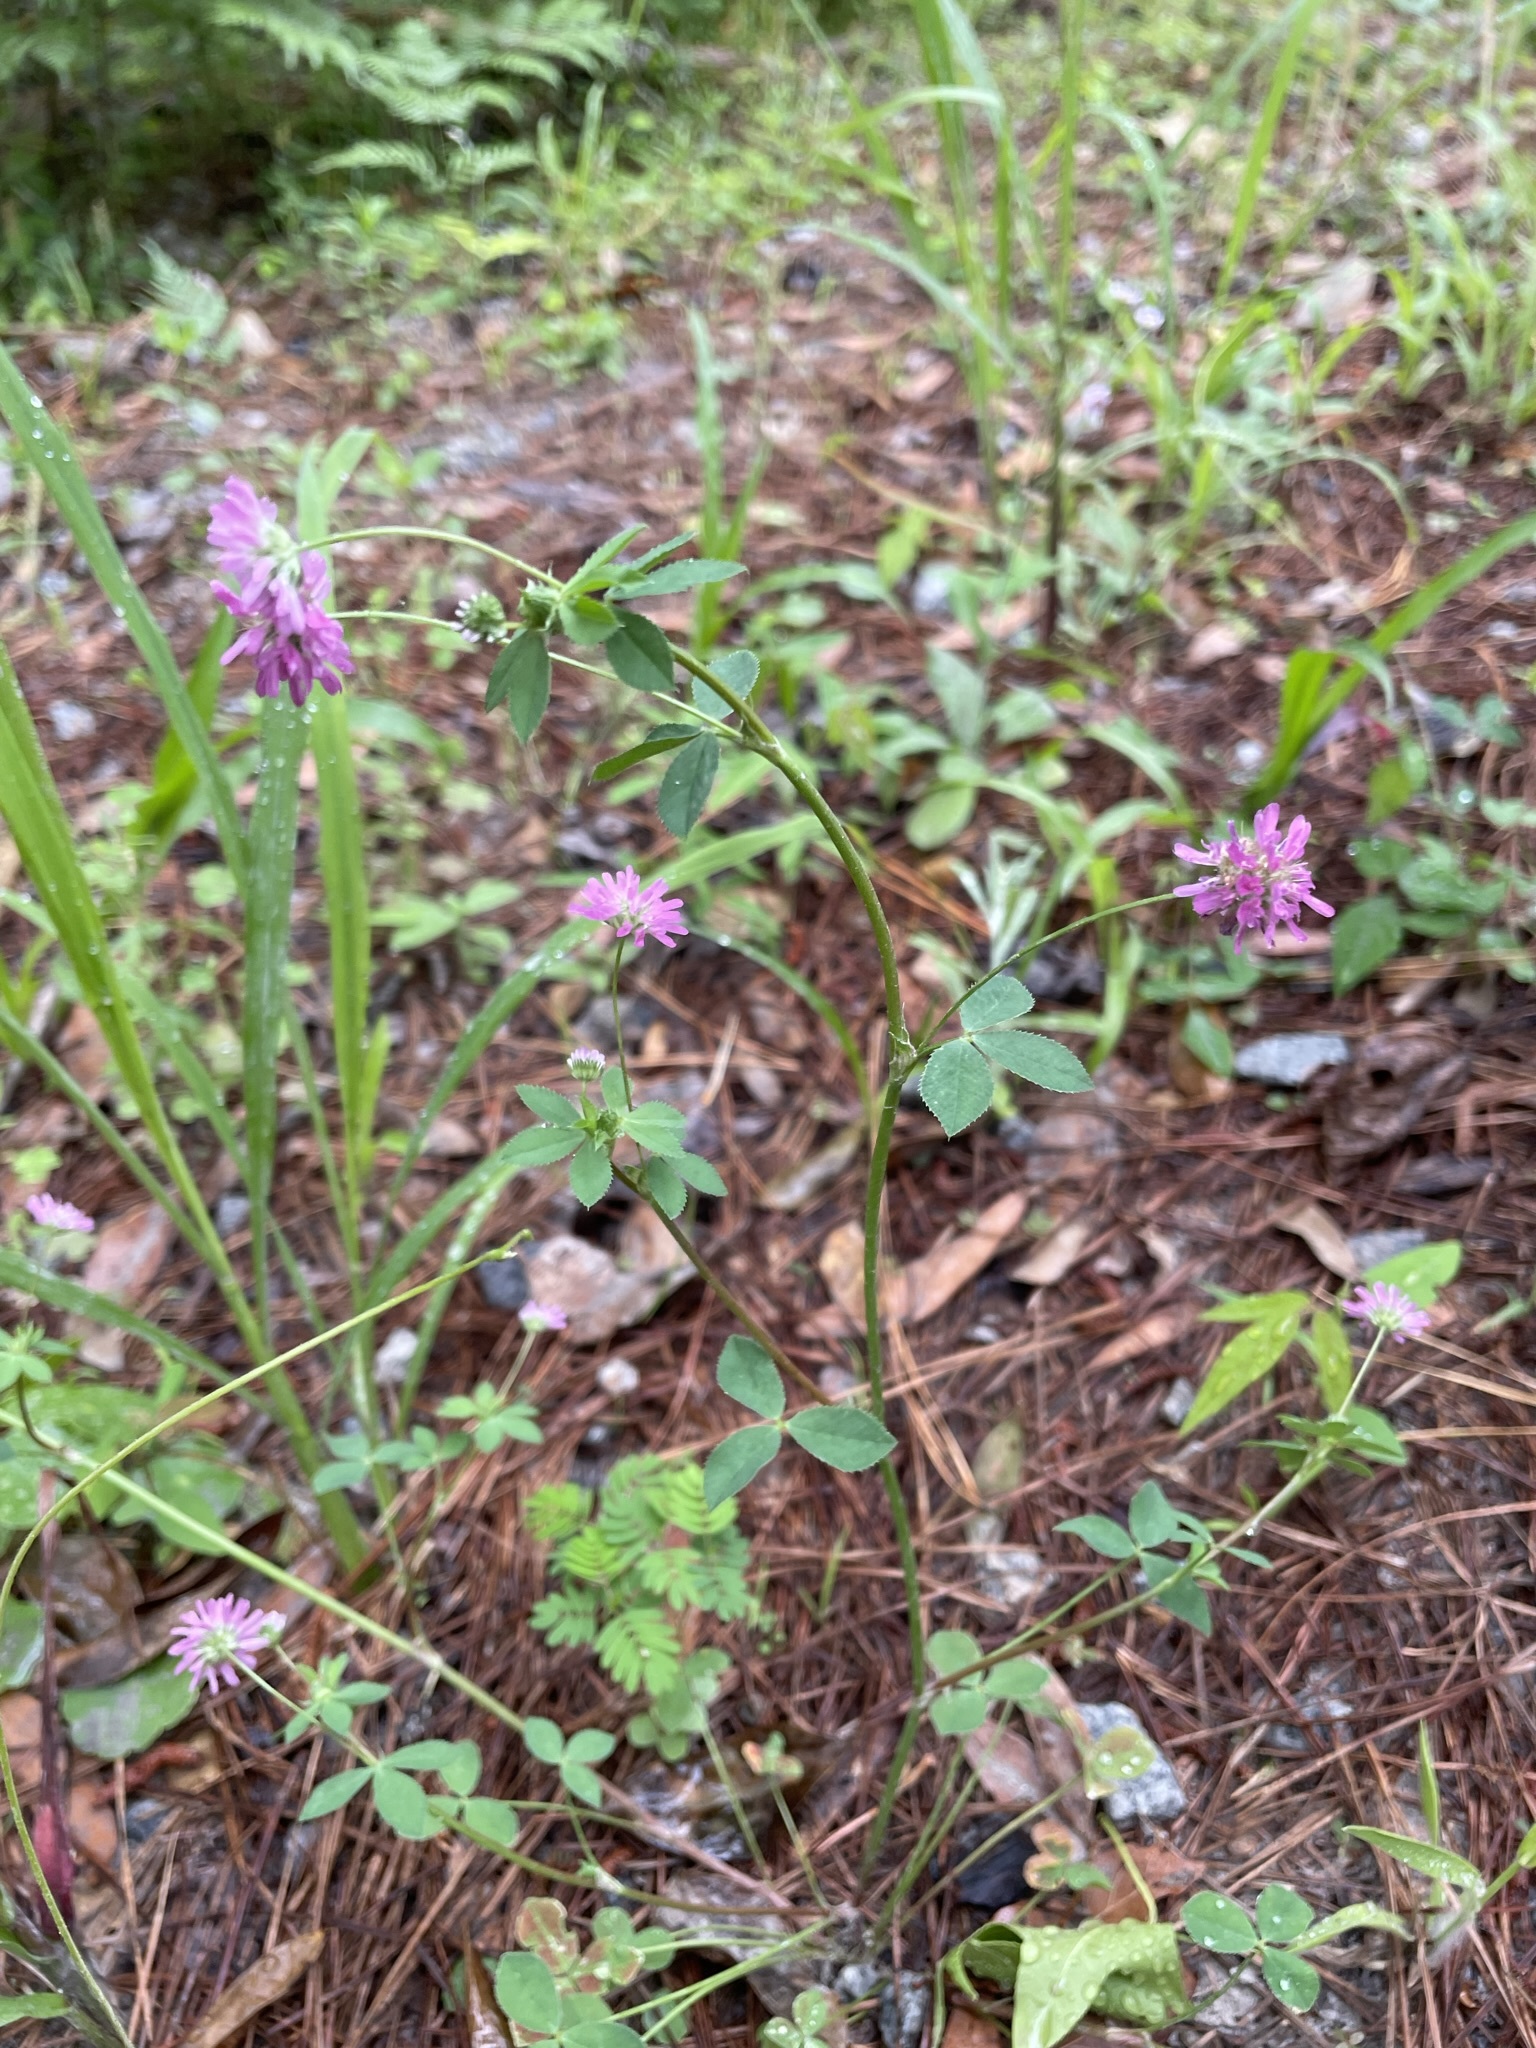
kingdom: Plantae
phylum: Tracheophyta
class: Magnoliopsida
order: Fabales
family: Fabaceae
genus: Trifolium
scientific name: Trifolium resupinatum
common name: Reversed clover
